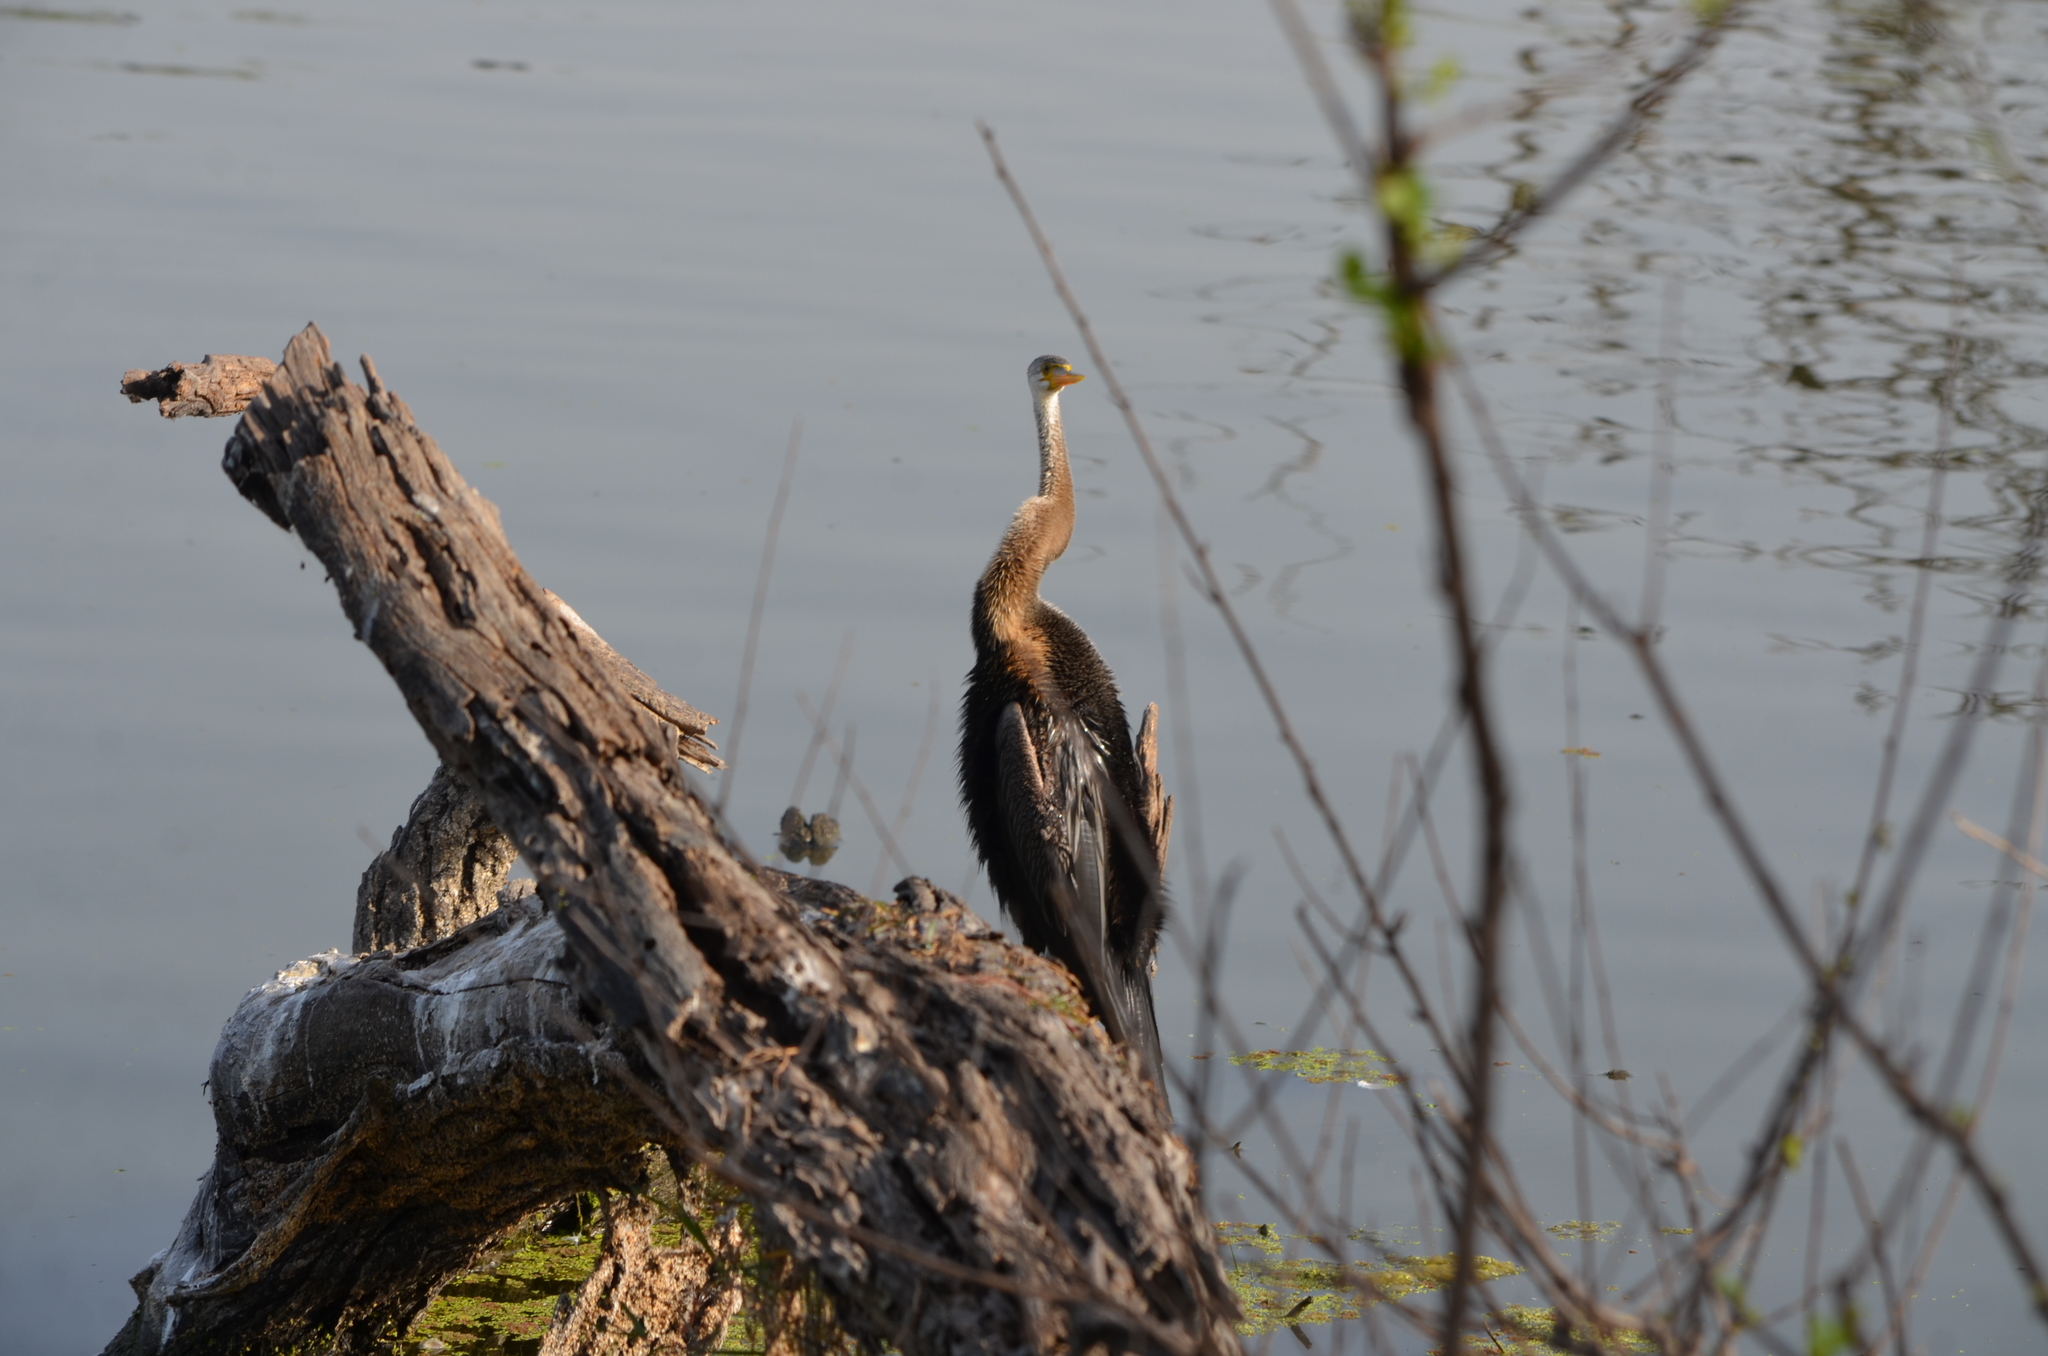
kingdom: Animalia
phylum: Chordata
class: Aves
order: Suliformes
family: Anhingidae
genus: Anhinga
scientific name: Anhinga melanogaster
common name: Oriental darter
